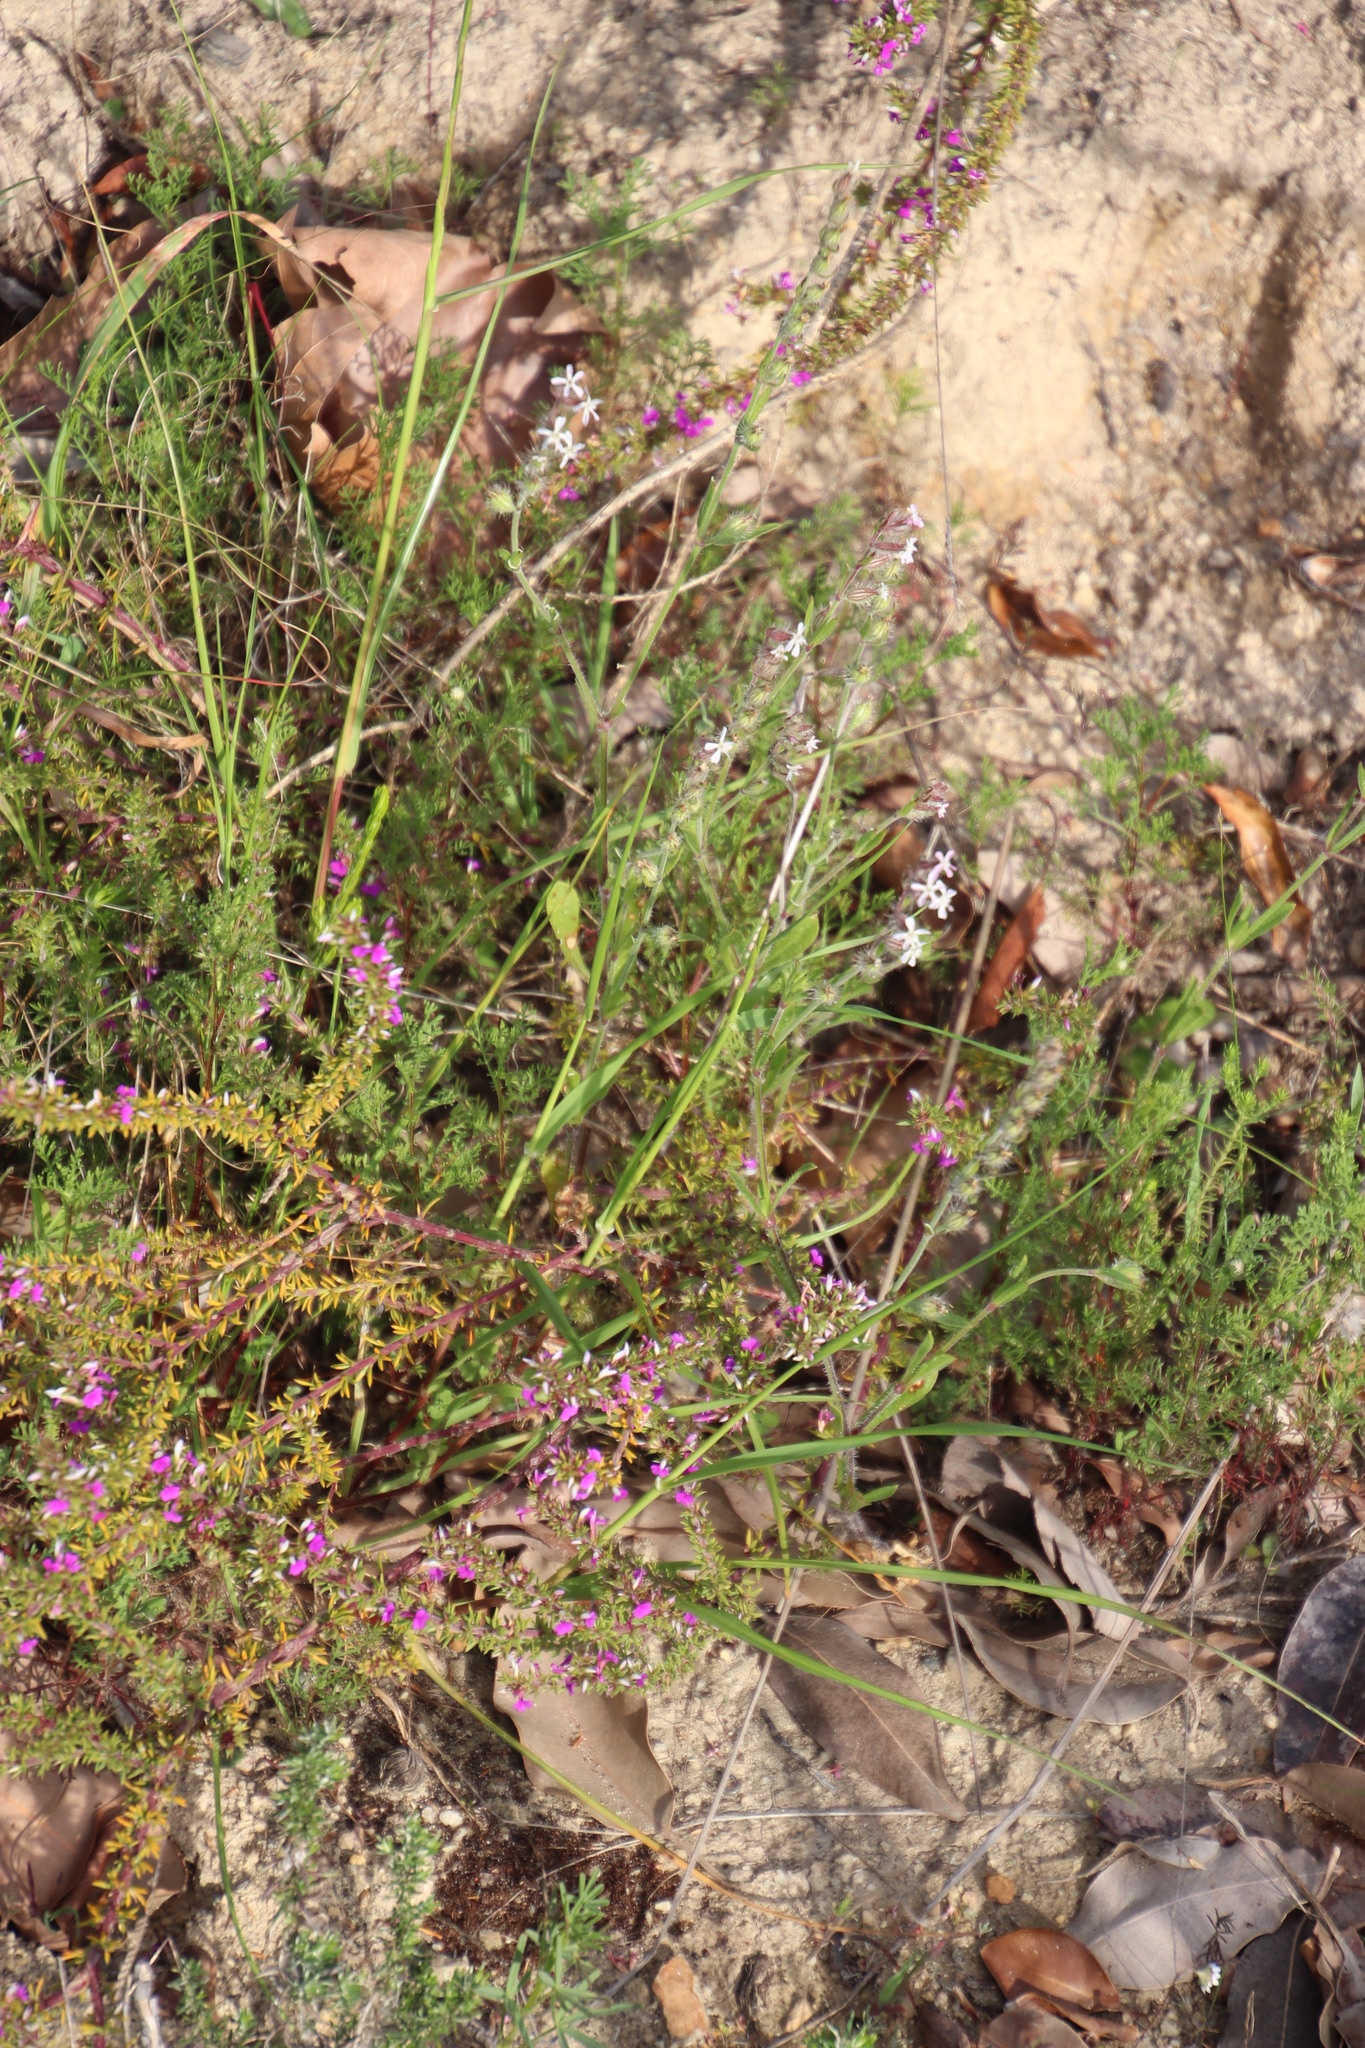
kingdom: Plantae
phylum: Tracheophyta
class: Magnoliopsida
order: Caryophyllales
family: Caryophyllaceae
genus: Silene
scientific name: Silene gallica
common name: Small-flowered catchfly
